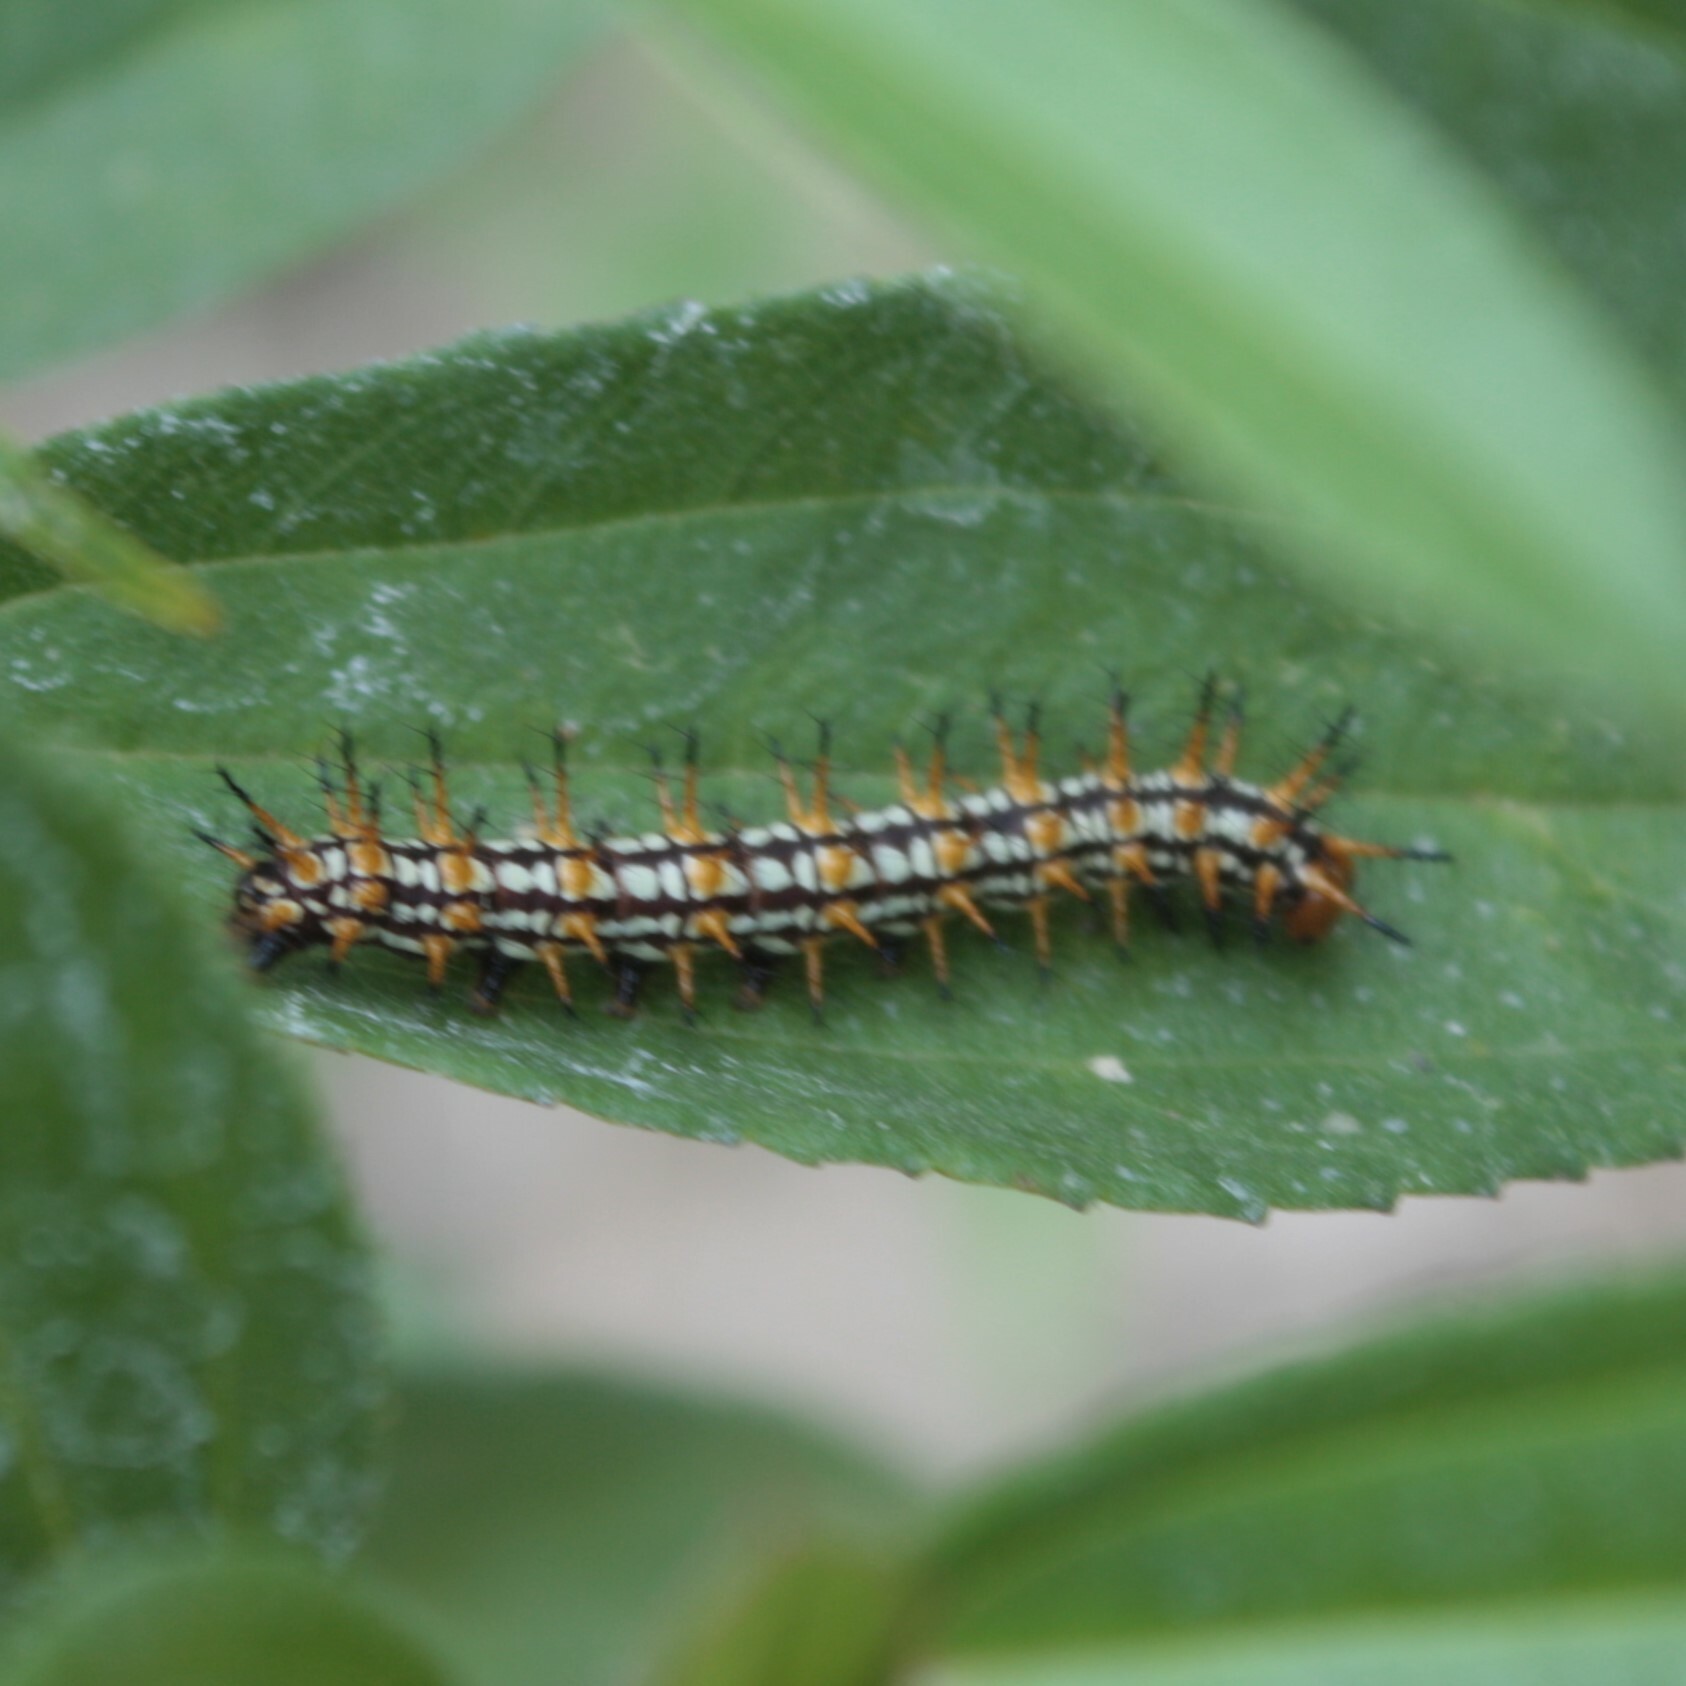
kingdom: Animalia
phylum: Arthropoda
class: Insecta
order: Lepidoptera
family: Nymphalidae
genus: Acraea
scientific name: Acraea Telchinia issoria
